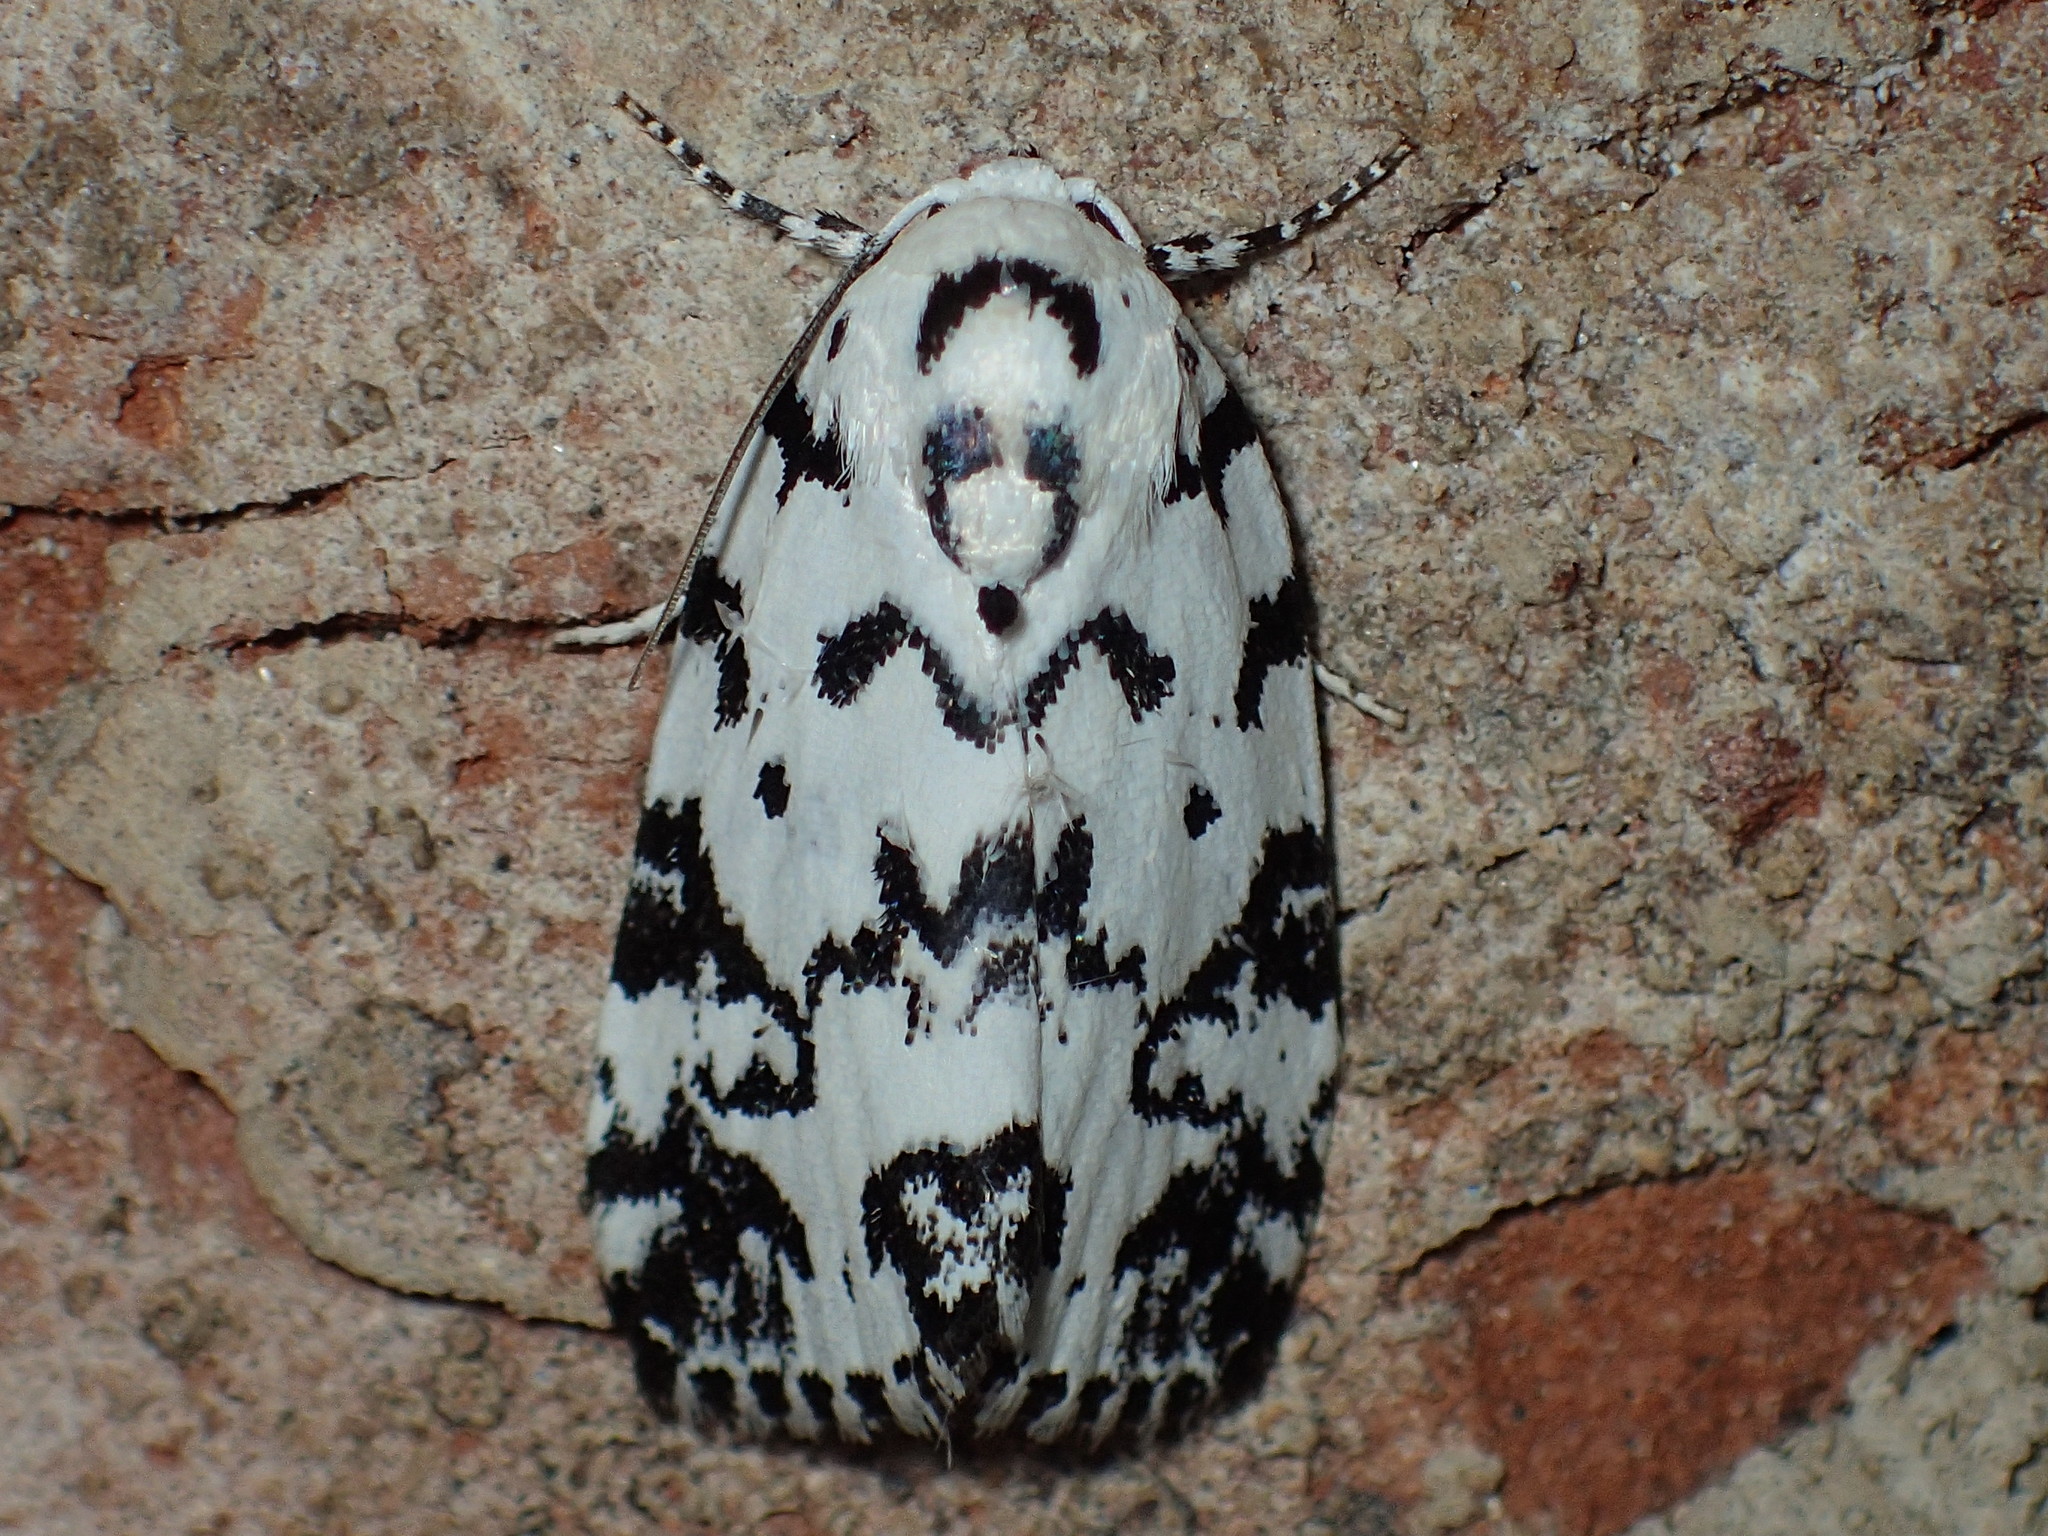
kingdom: Animalia
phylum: Arthropoda
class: Insecta
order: Lepidoptera
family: Noctuidae
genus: Polygrammate
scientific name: Polygrammate hebraeicum
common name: Hebrew moth
